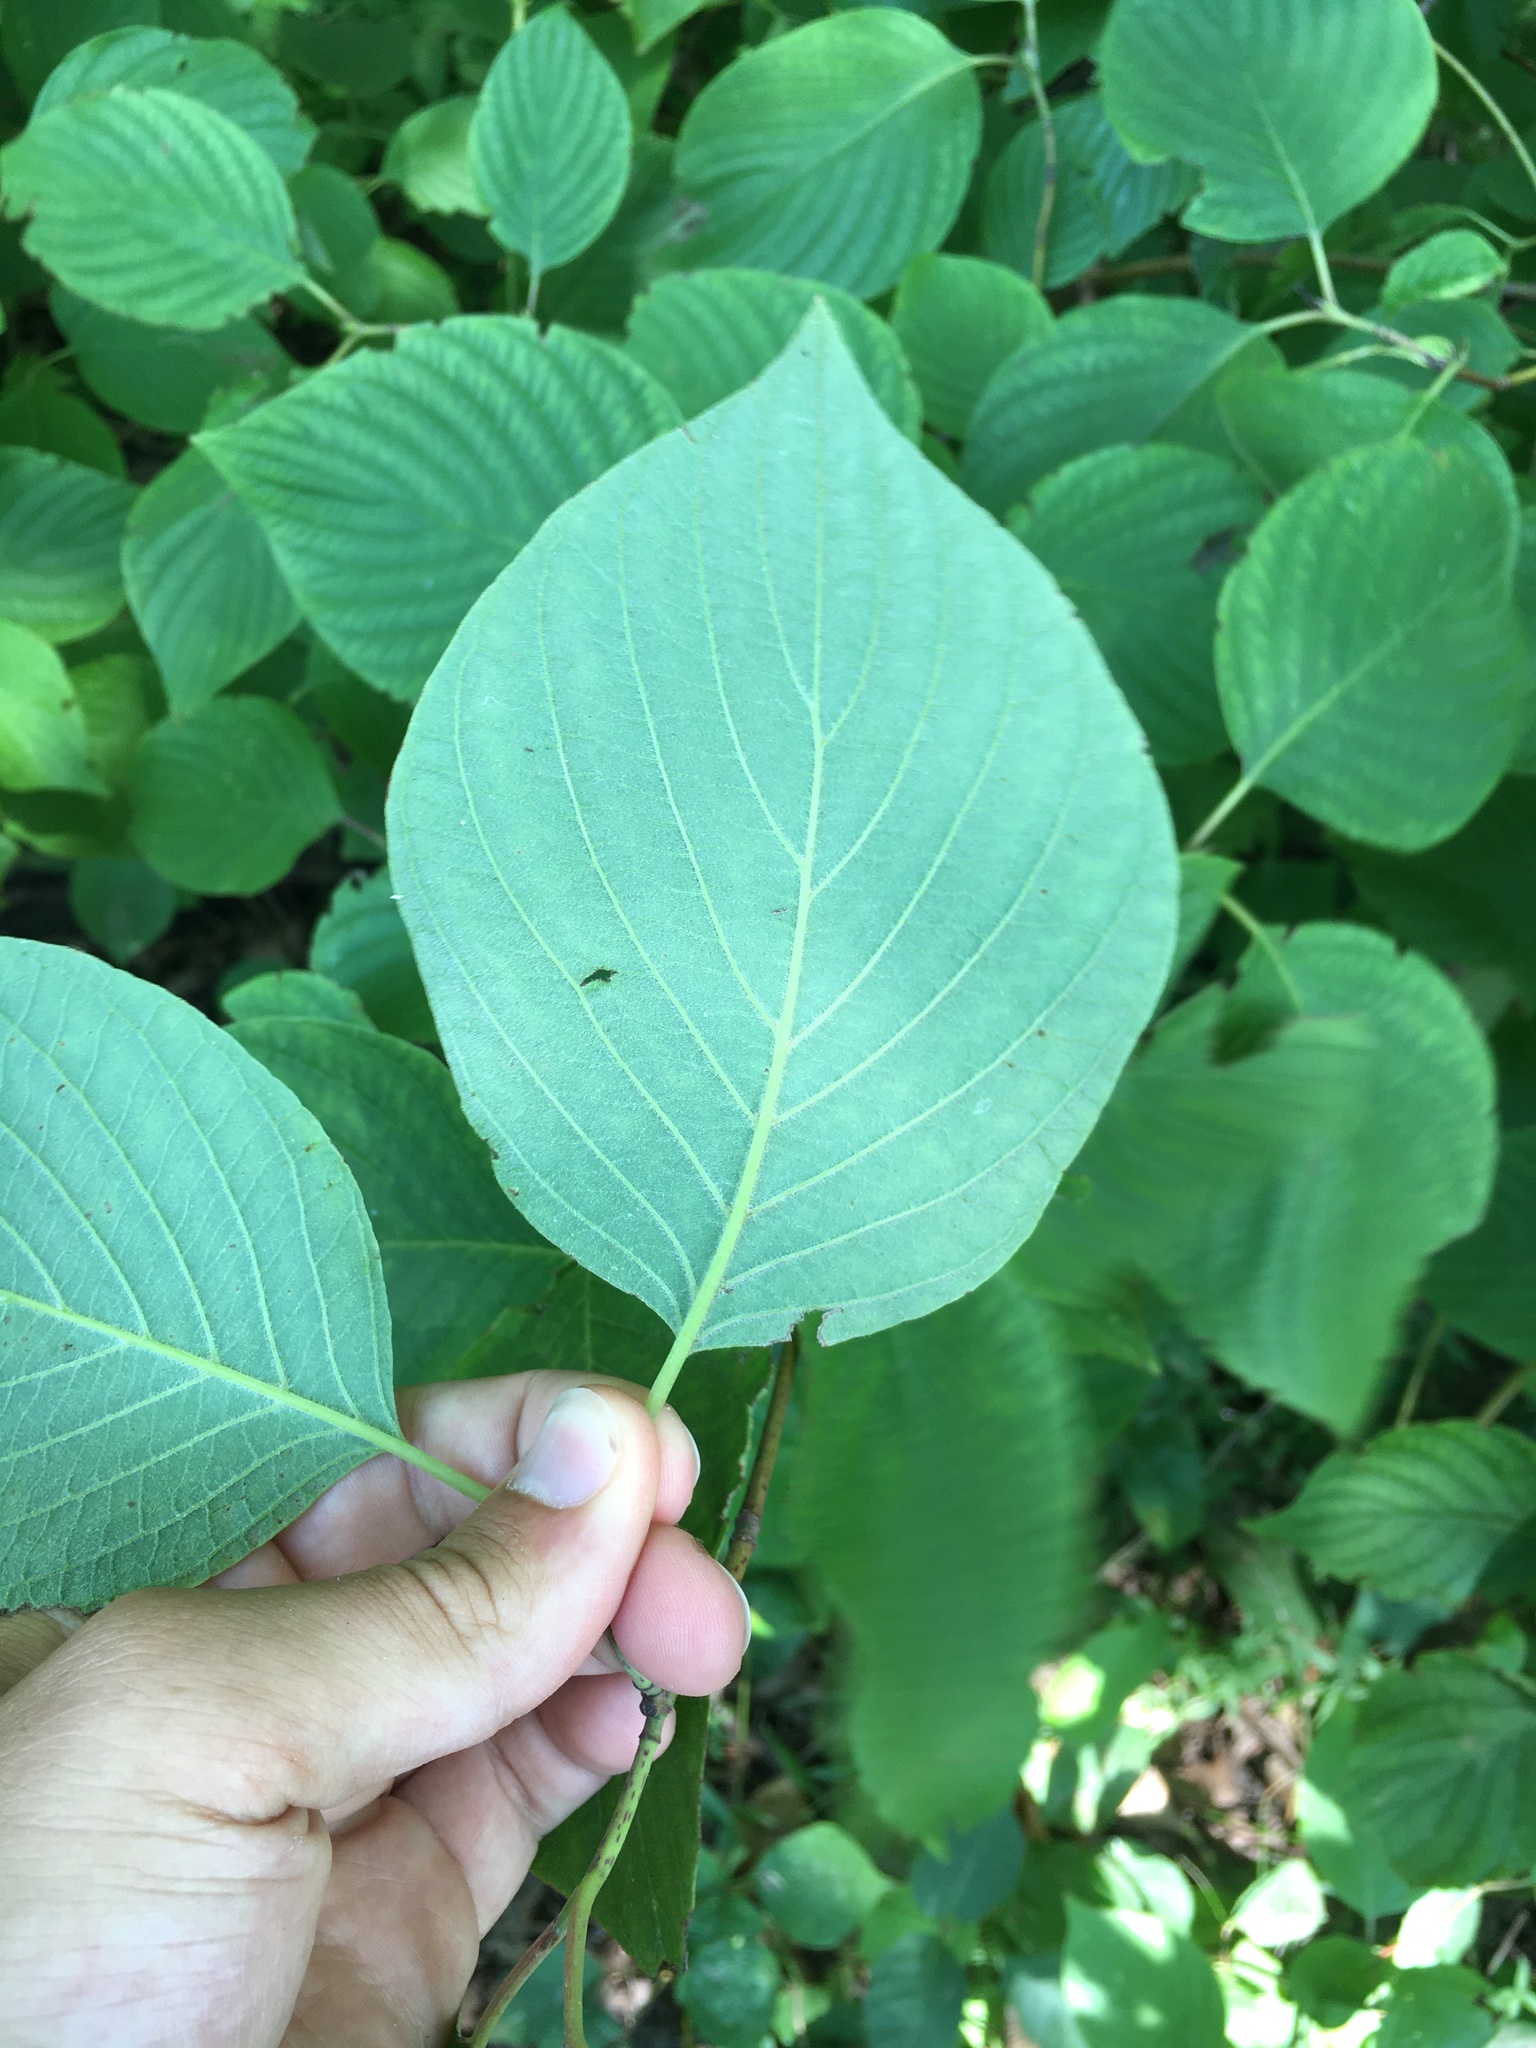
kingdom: Plantae
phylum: Tracheophyta
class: Magnoliopsida
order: Cornales
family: Cornaceae
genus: Cornus
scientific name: Cornus rugosa
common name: Round-leaf dogwood
